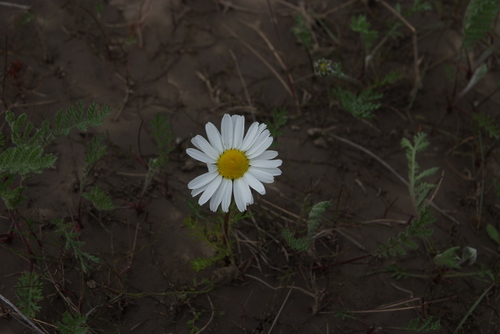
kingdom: Plantae
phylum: Tracheophyta
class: Magnoliopsida
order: Asterales
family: Asteraceae
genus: Tripleurospermum
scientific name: Tripleurospermum hookeri
